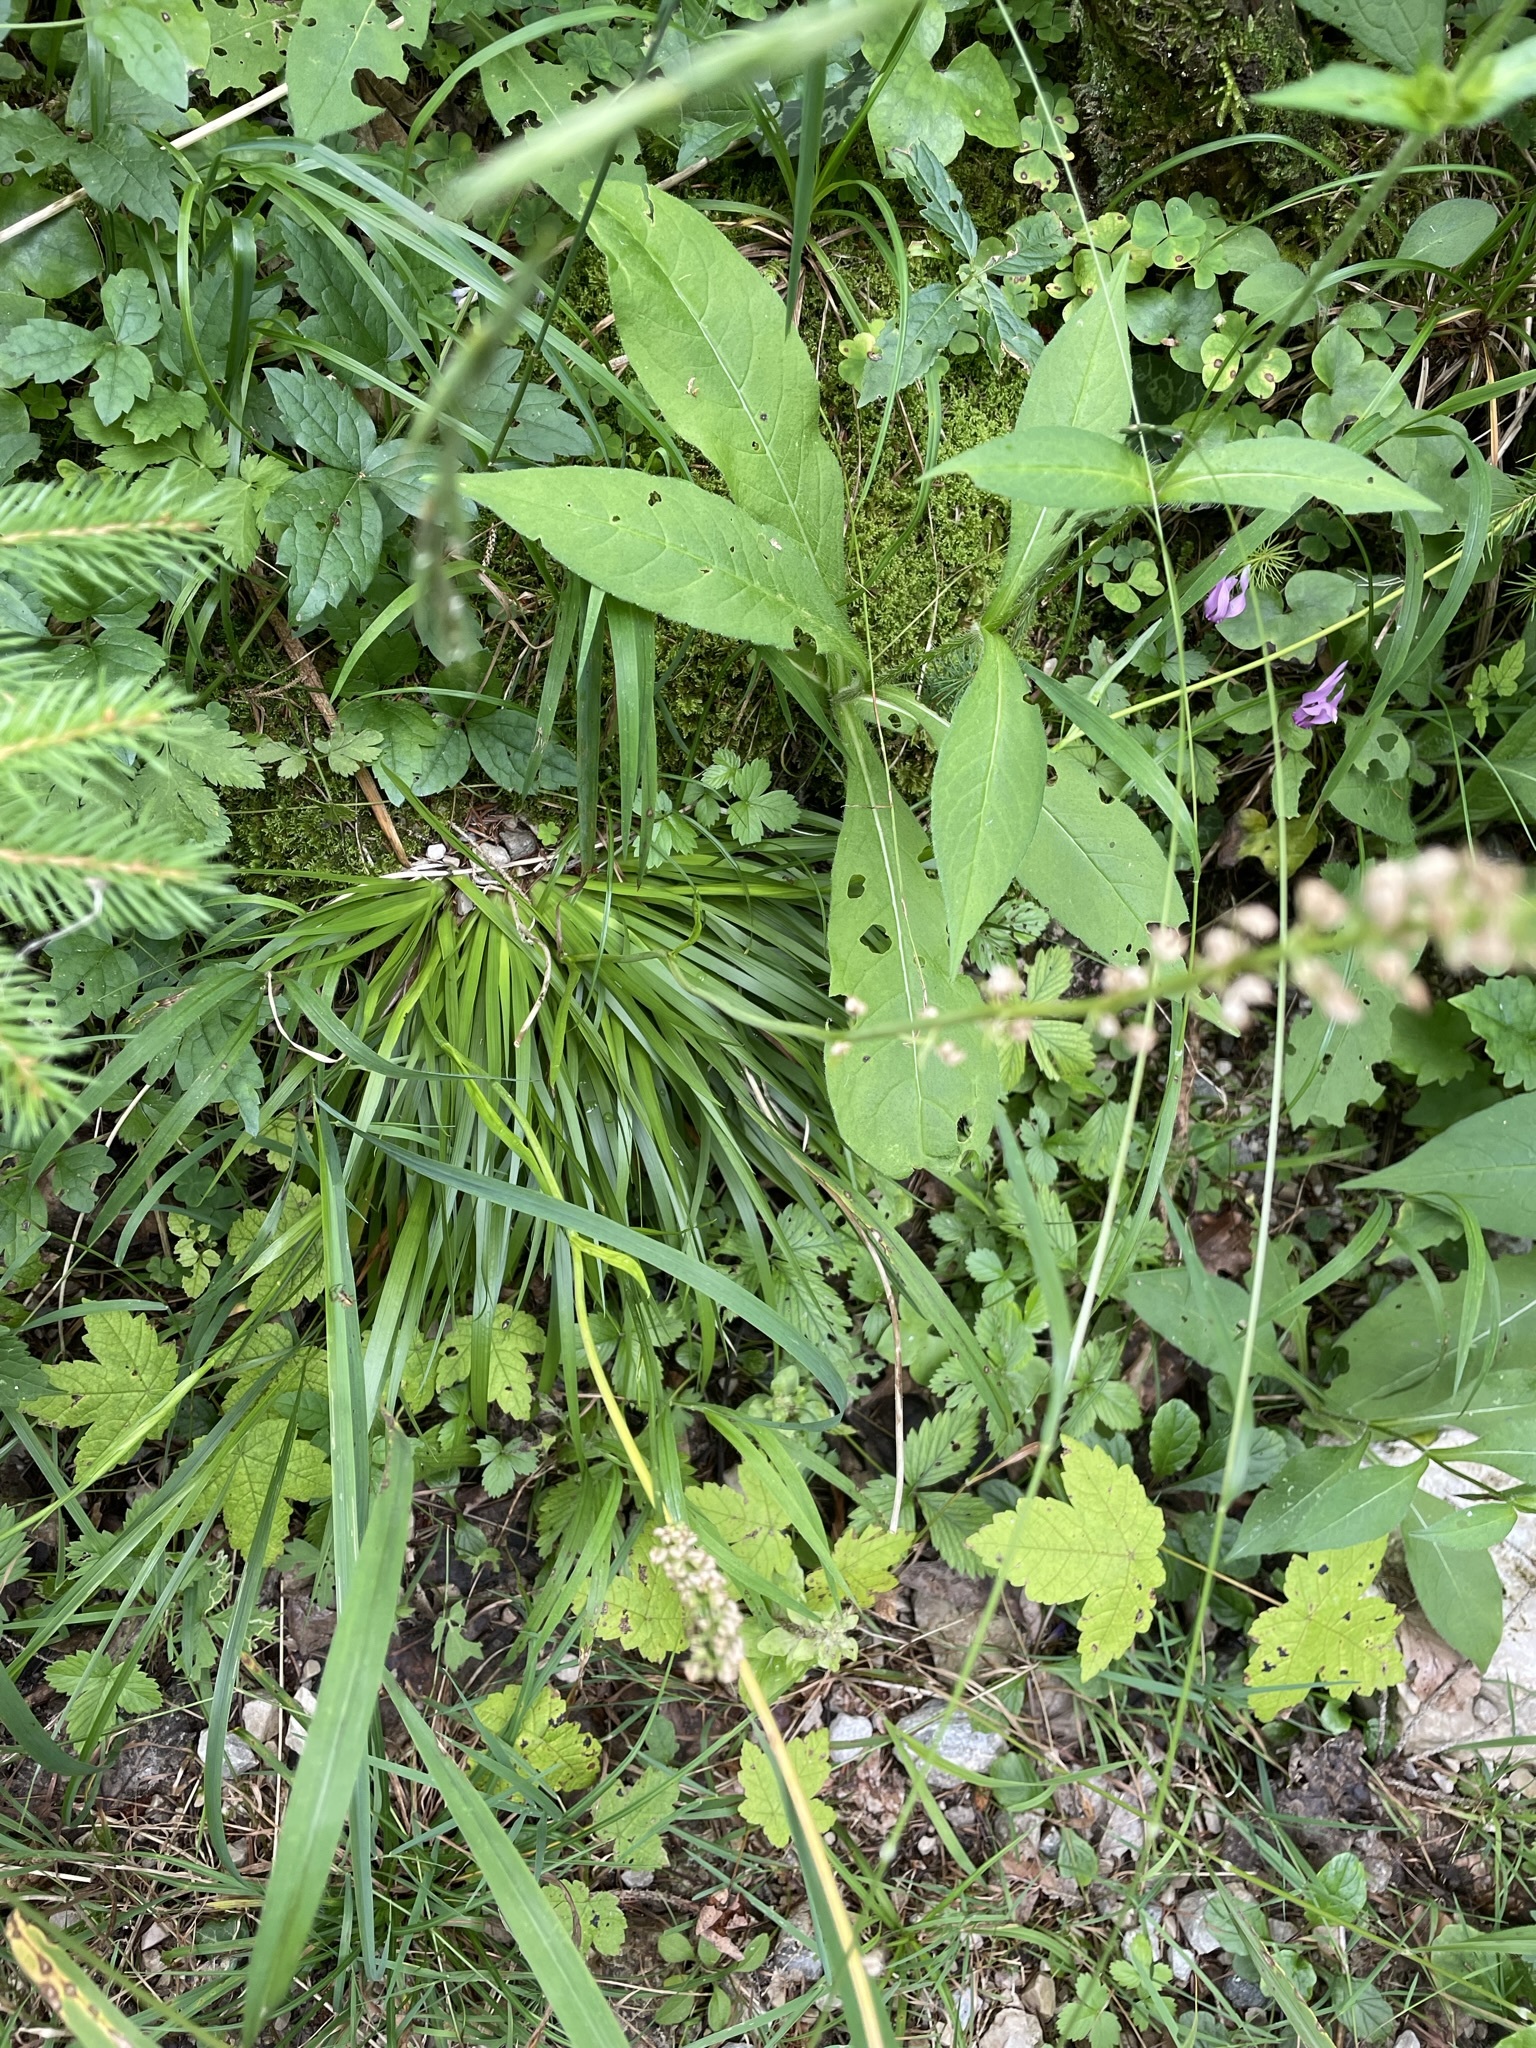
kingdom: Plantae
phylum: Tracheophyta
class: Liliopsida
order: Alismatales
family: Tofieldiaceae
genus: Tofieldia
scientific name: Tofieldia calyculata
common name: German-asphodel
